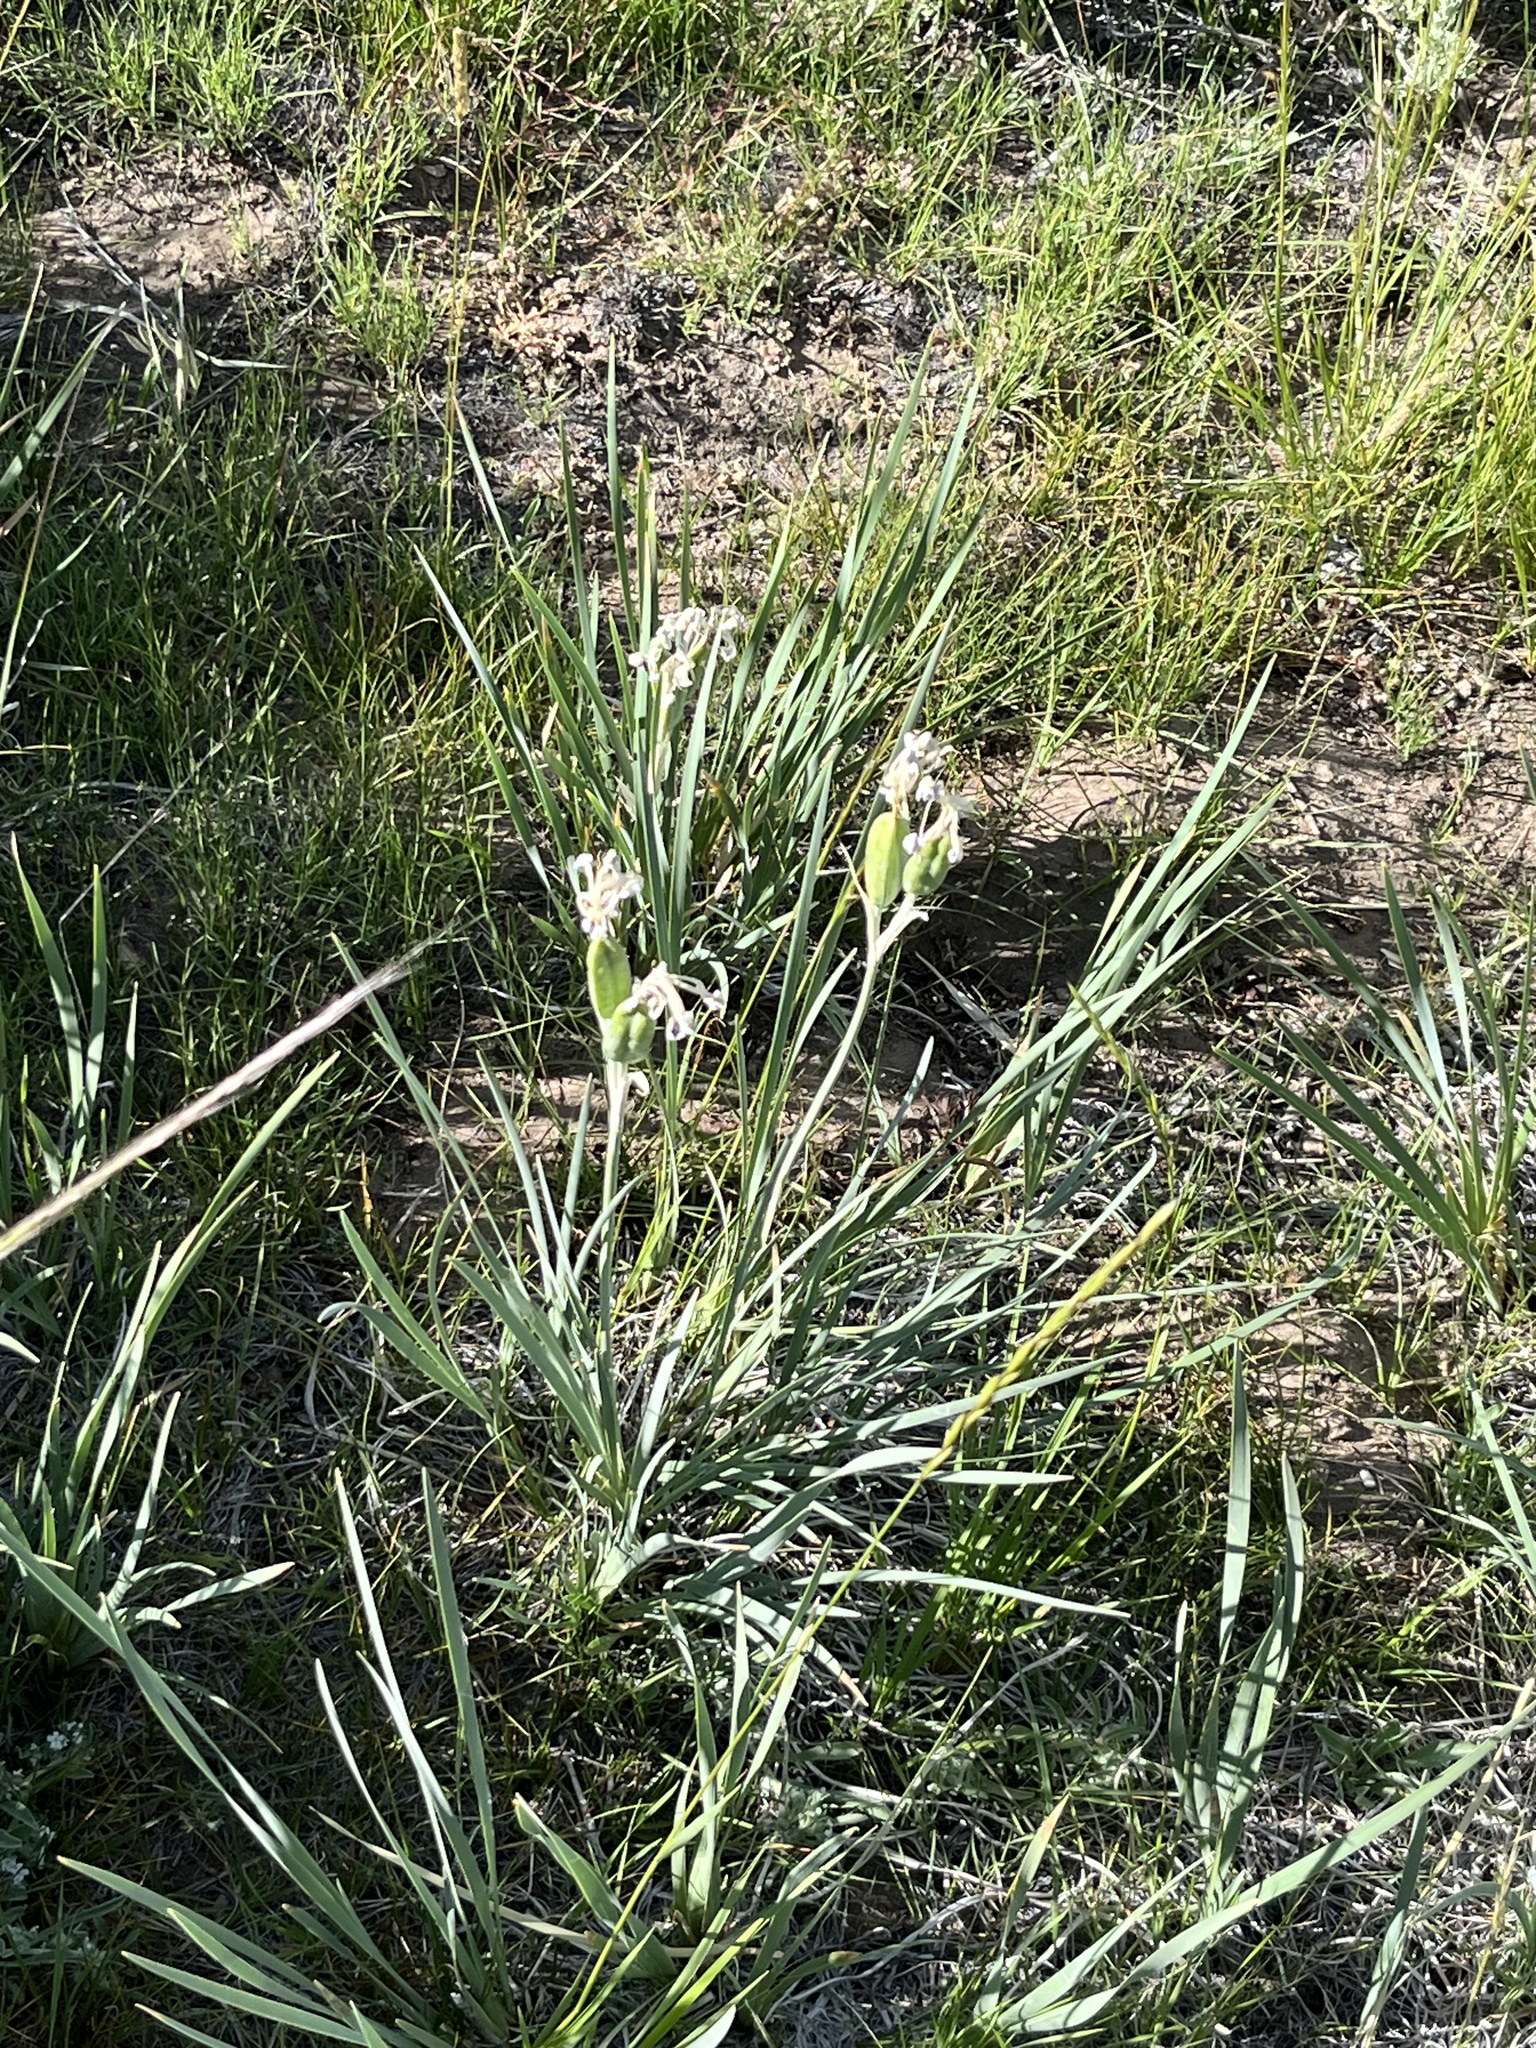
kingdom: Plantae
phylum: Tracheophyta
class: Liliopsida
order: Asparagales
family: Iridaceae
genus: Iris
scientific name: Iris missouriensis
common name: Rocky mountain iris
